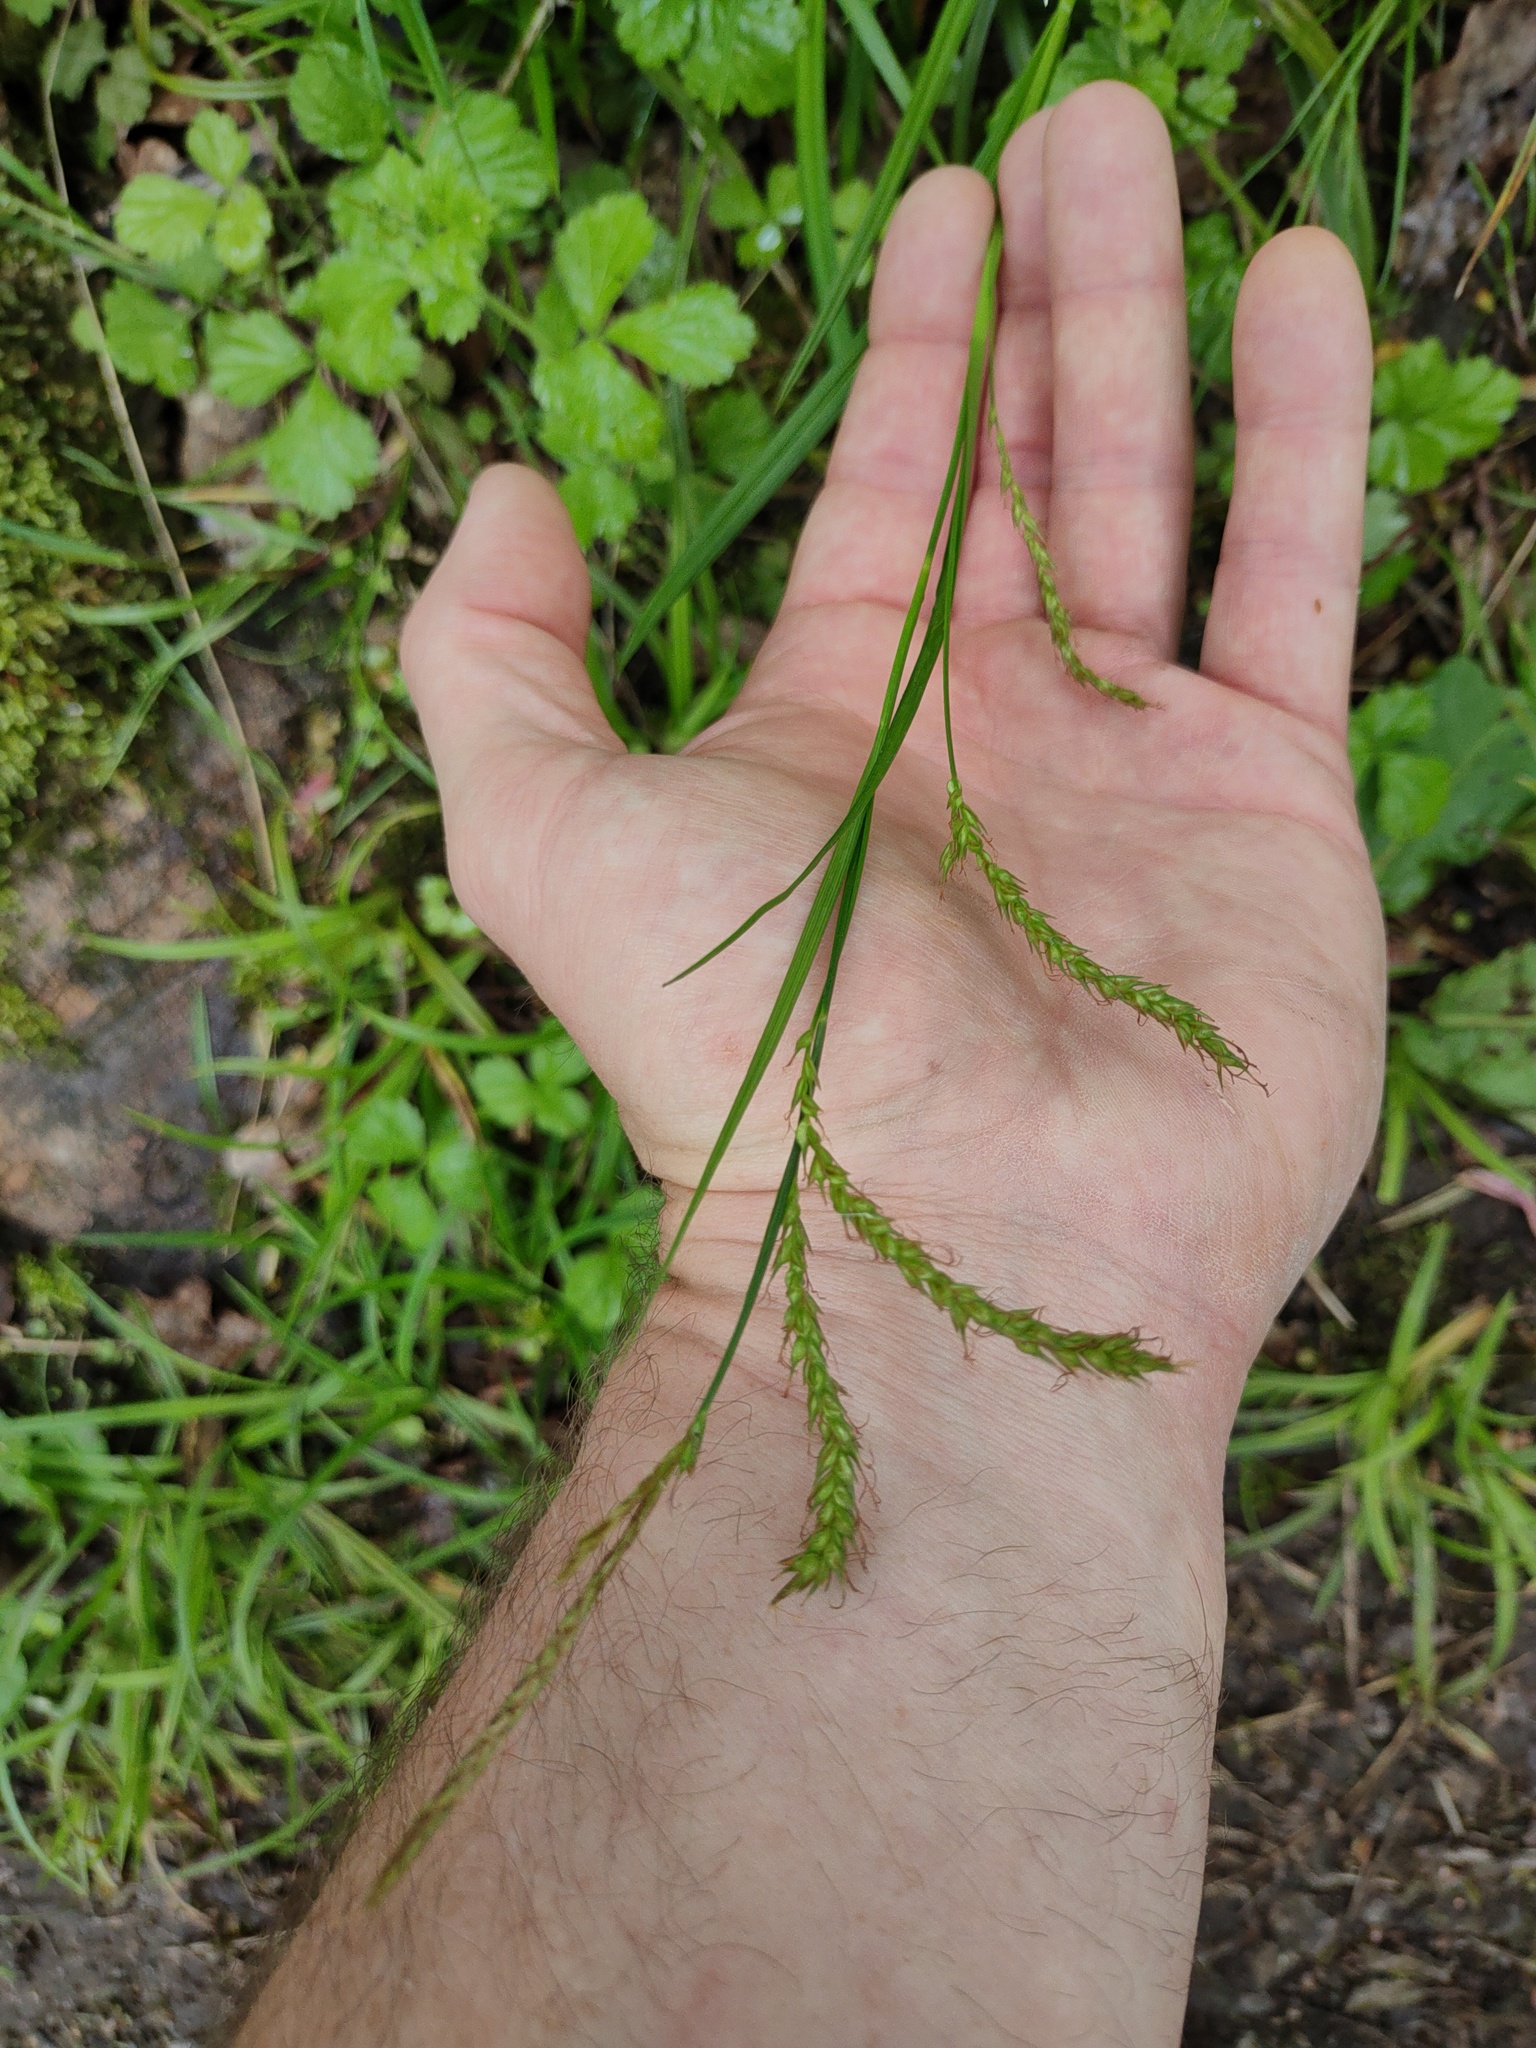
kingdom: Plantae
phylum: Tracheophyta
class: Liliopsida
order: Poales
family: Cyperaceae
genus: Carex
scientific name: Carex sylvatica
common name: Wood-sedge
